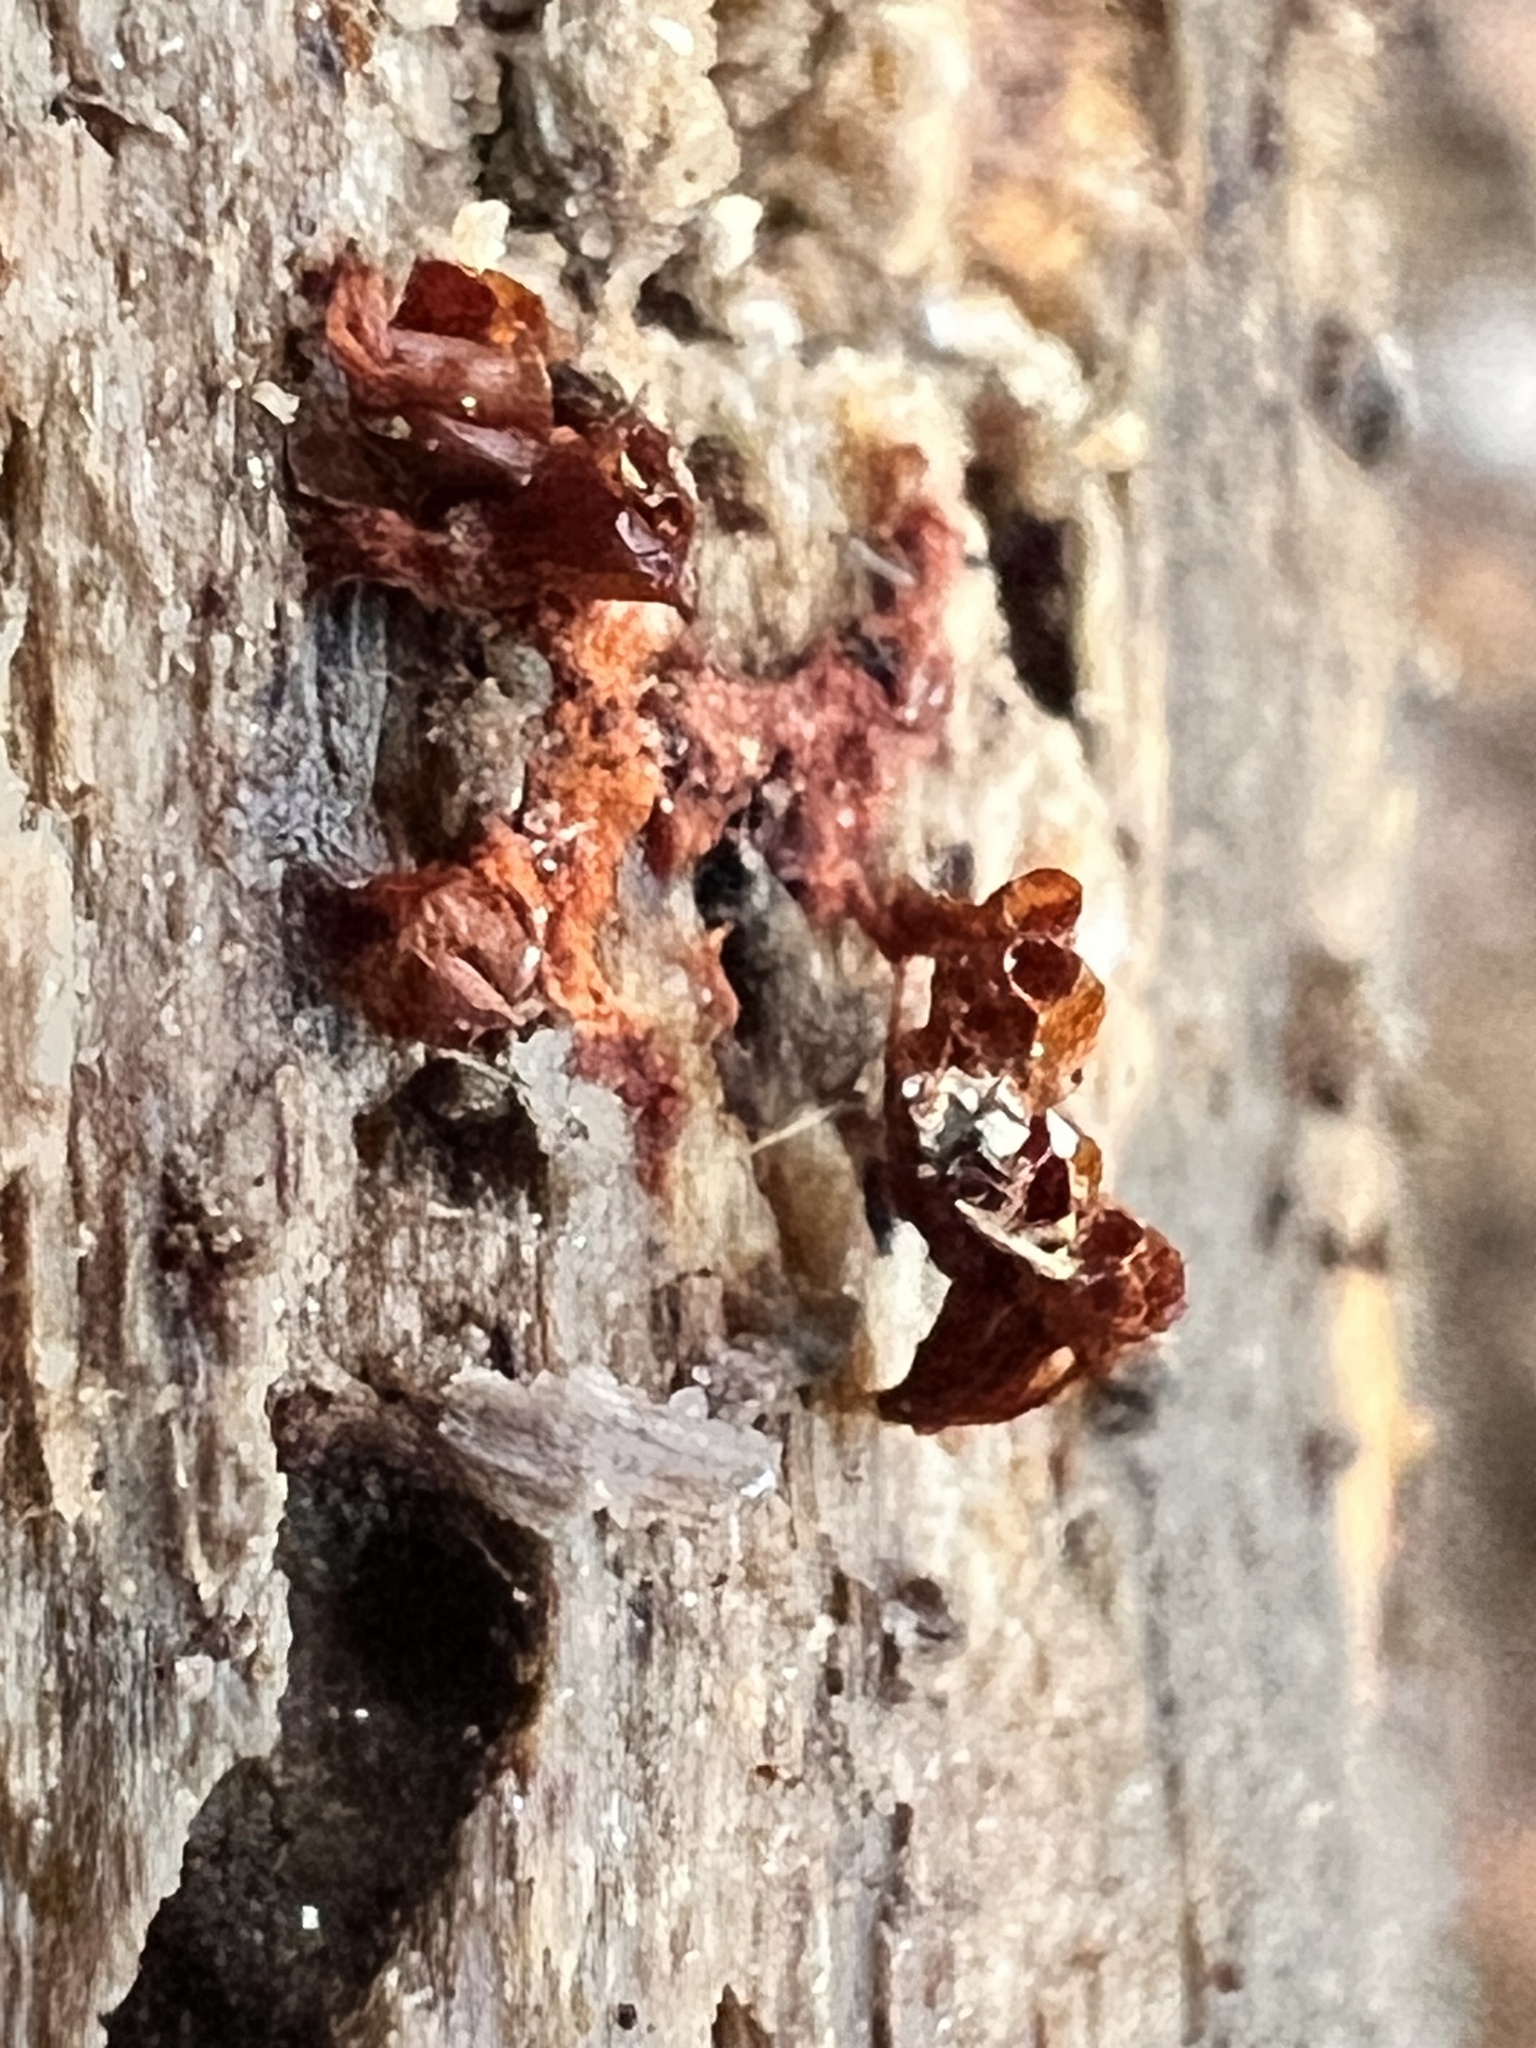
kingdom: Protozoa
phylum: Mycetozoa
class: Myxomycetes
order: Trichiales
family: Trichiaceae
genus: Metatrichia
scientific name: Metatrichia vesparia
